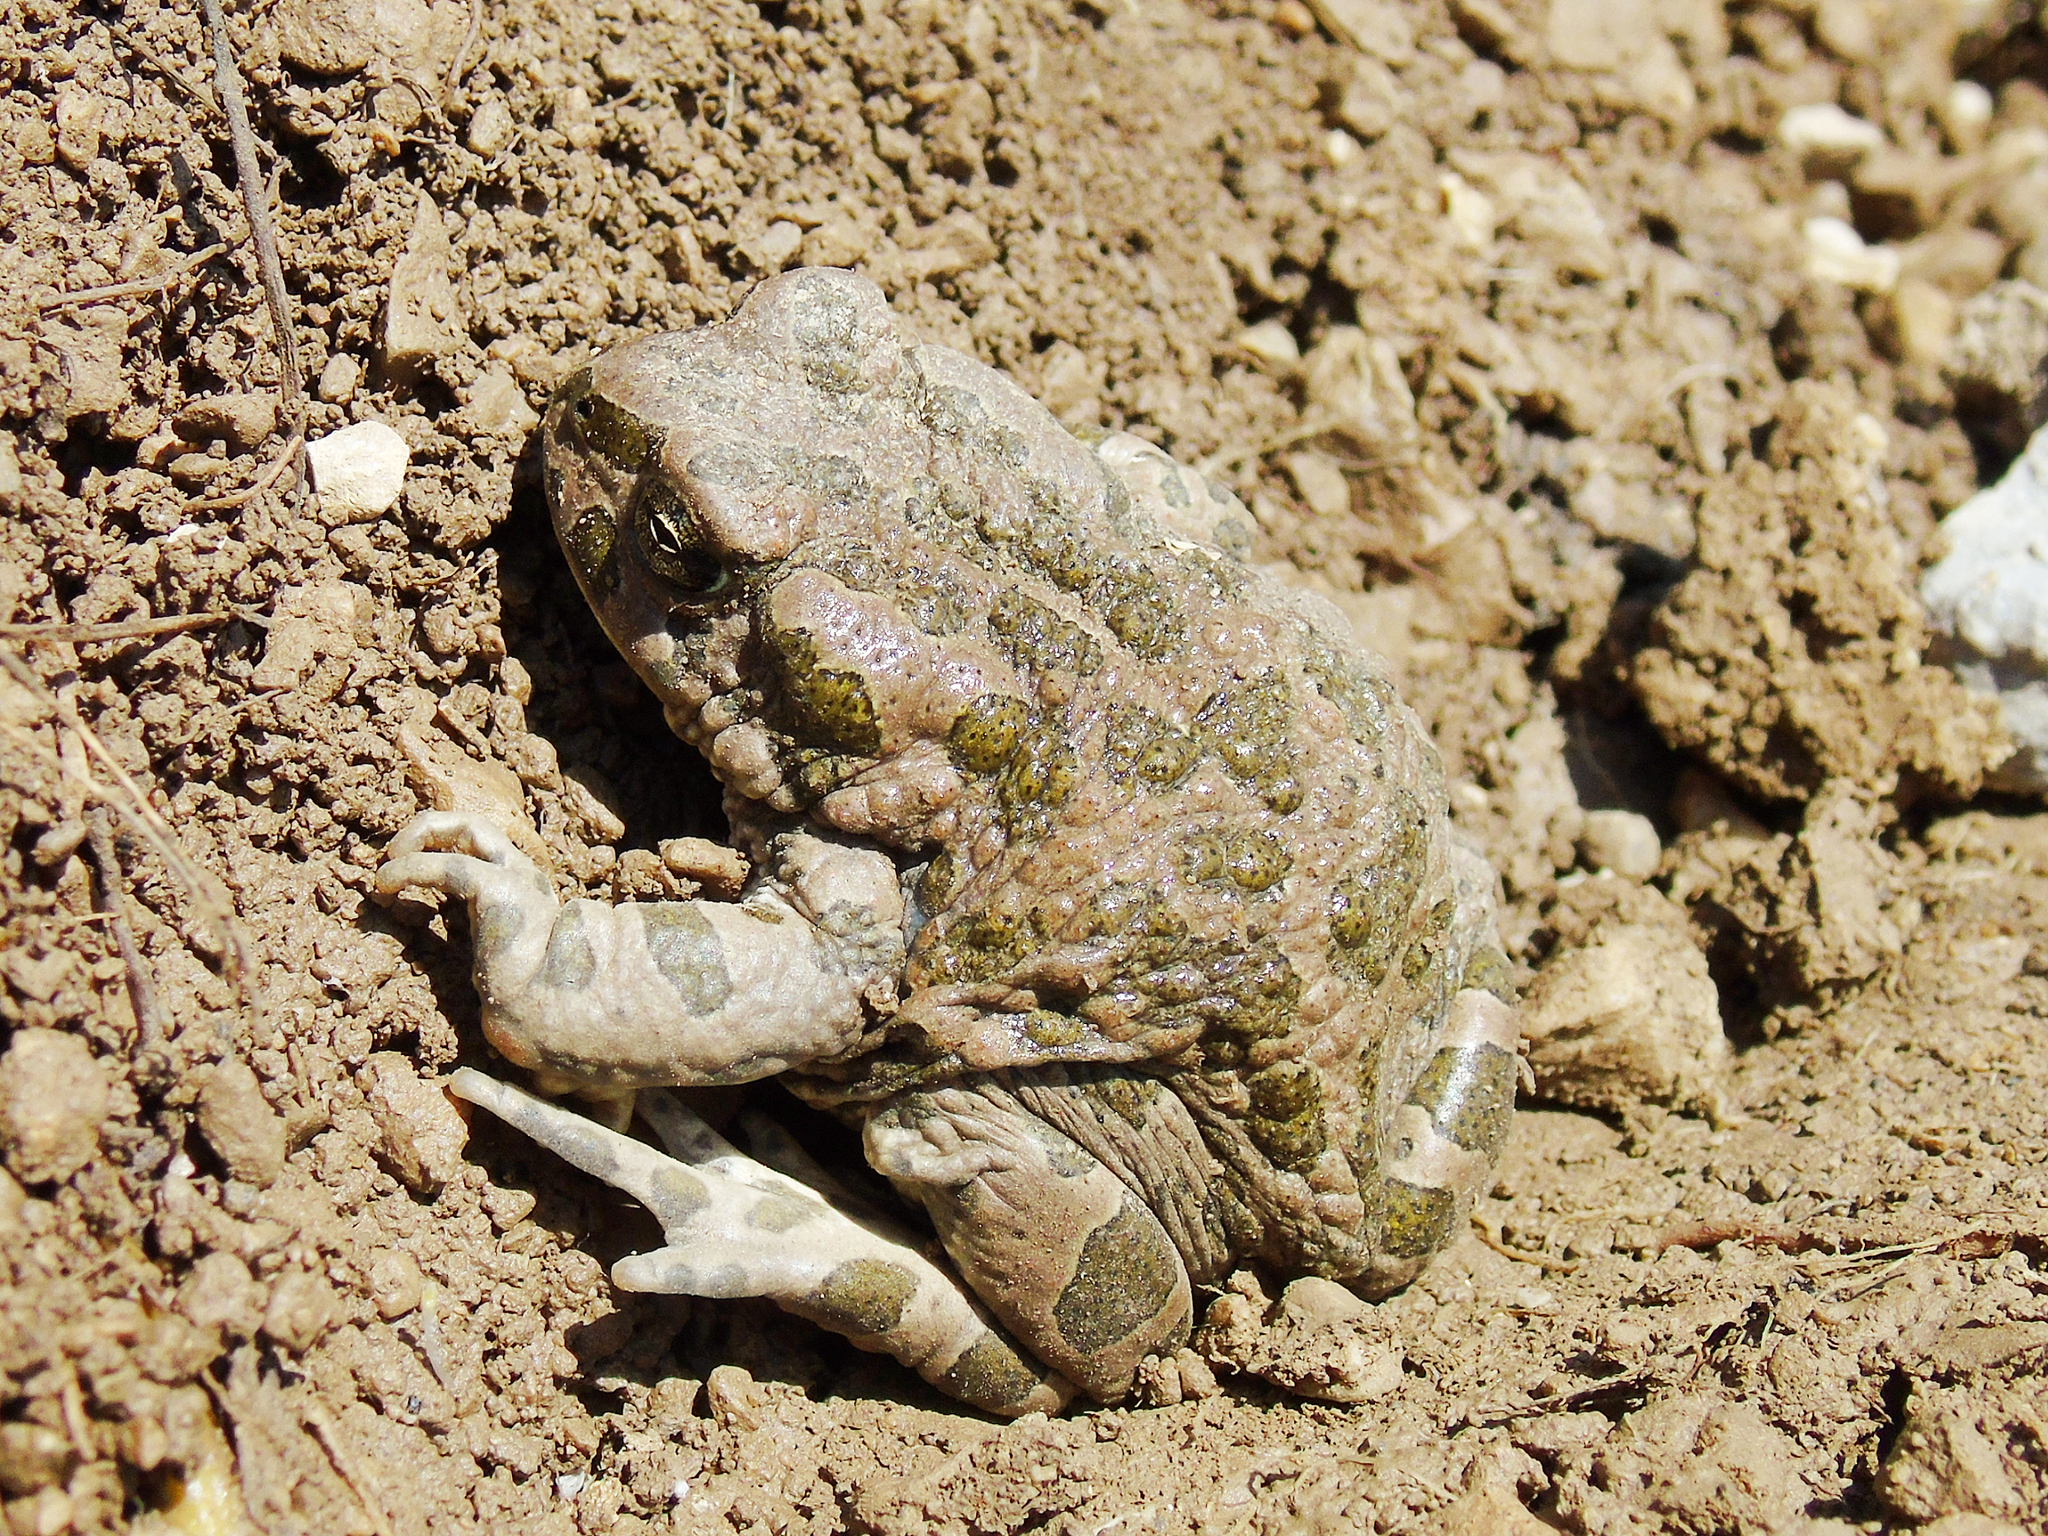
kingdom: Animalia
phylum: Chordata
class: Amphibia
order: Anura
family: Bufonidae
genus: Bufotes
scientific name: Bufotes pewzowi
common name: Xinjiang toad
